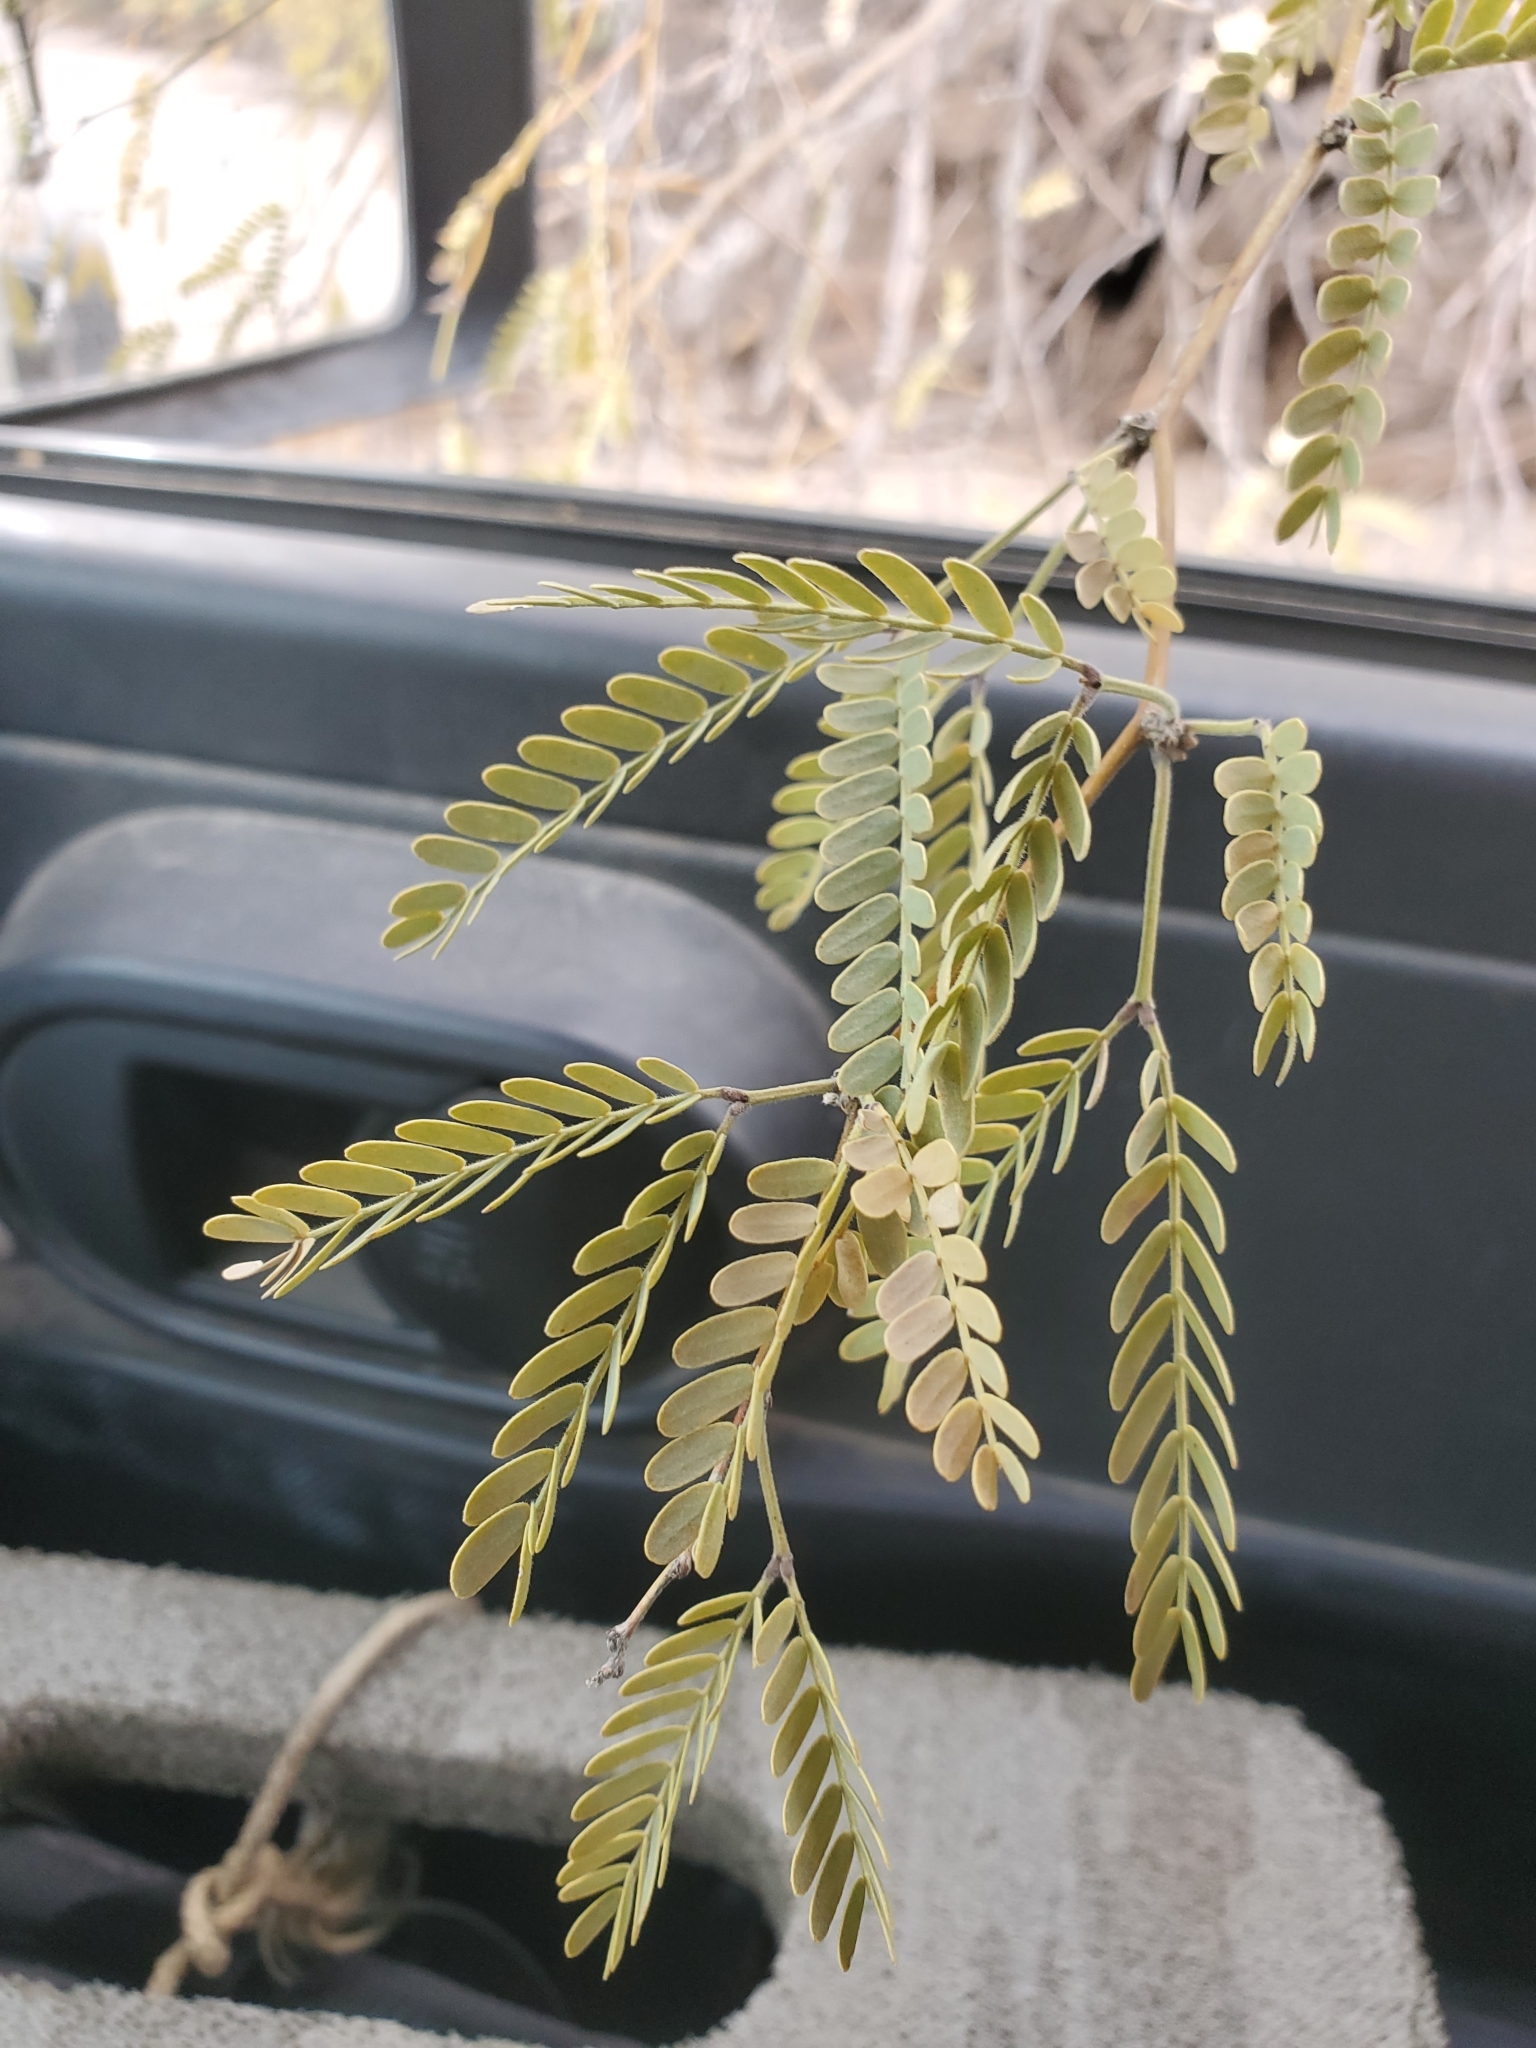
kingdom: Plantae
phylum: Tracheophyta
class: Magnoliopsida
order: Fabales
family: Fabaceae
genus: Prosopis
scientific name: Prosopis velutina
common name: Velvet mesquite
